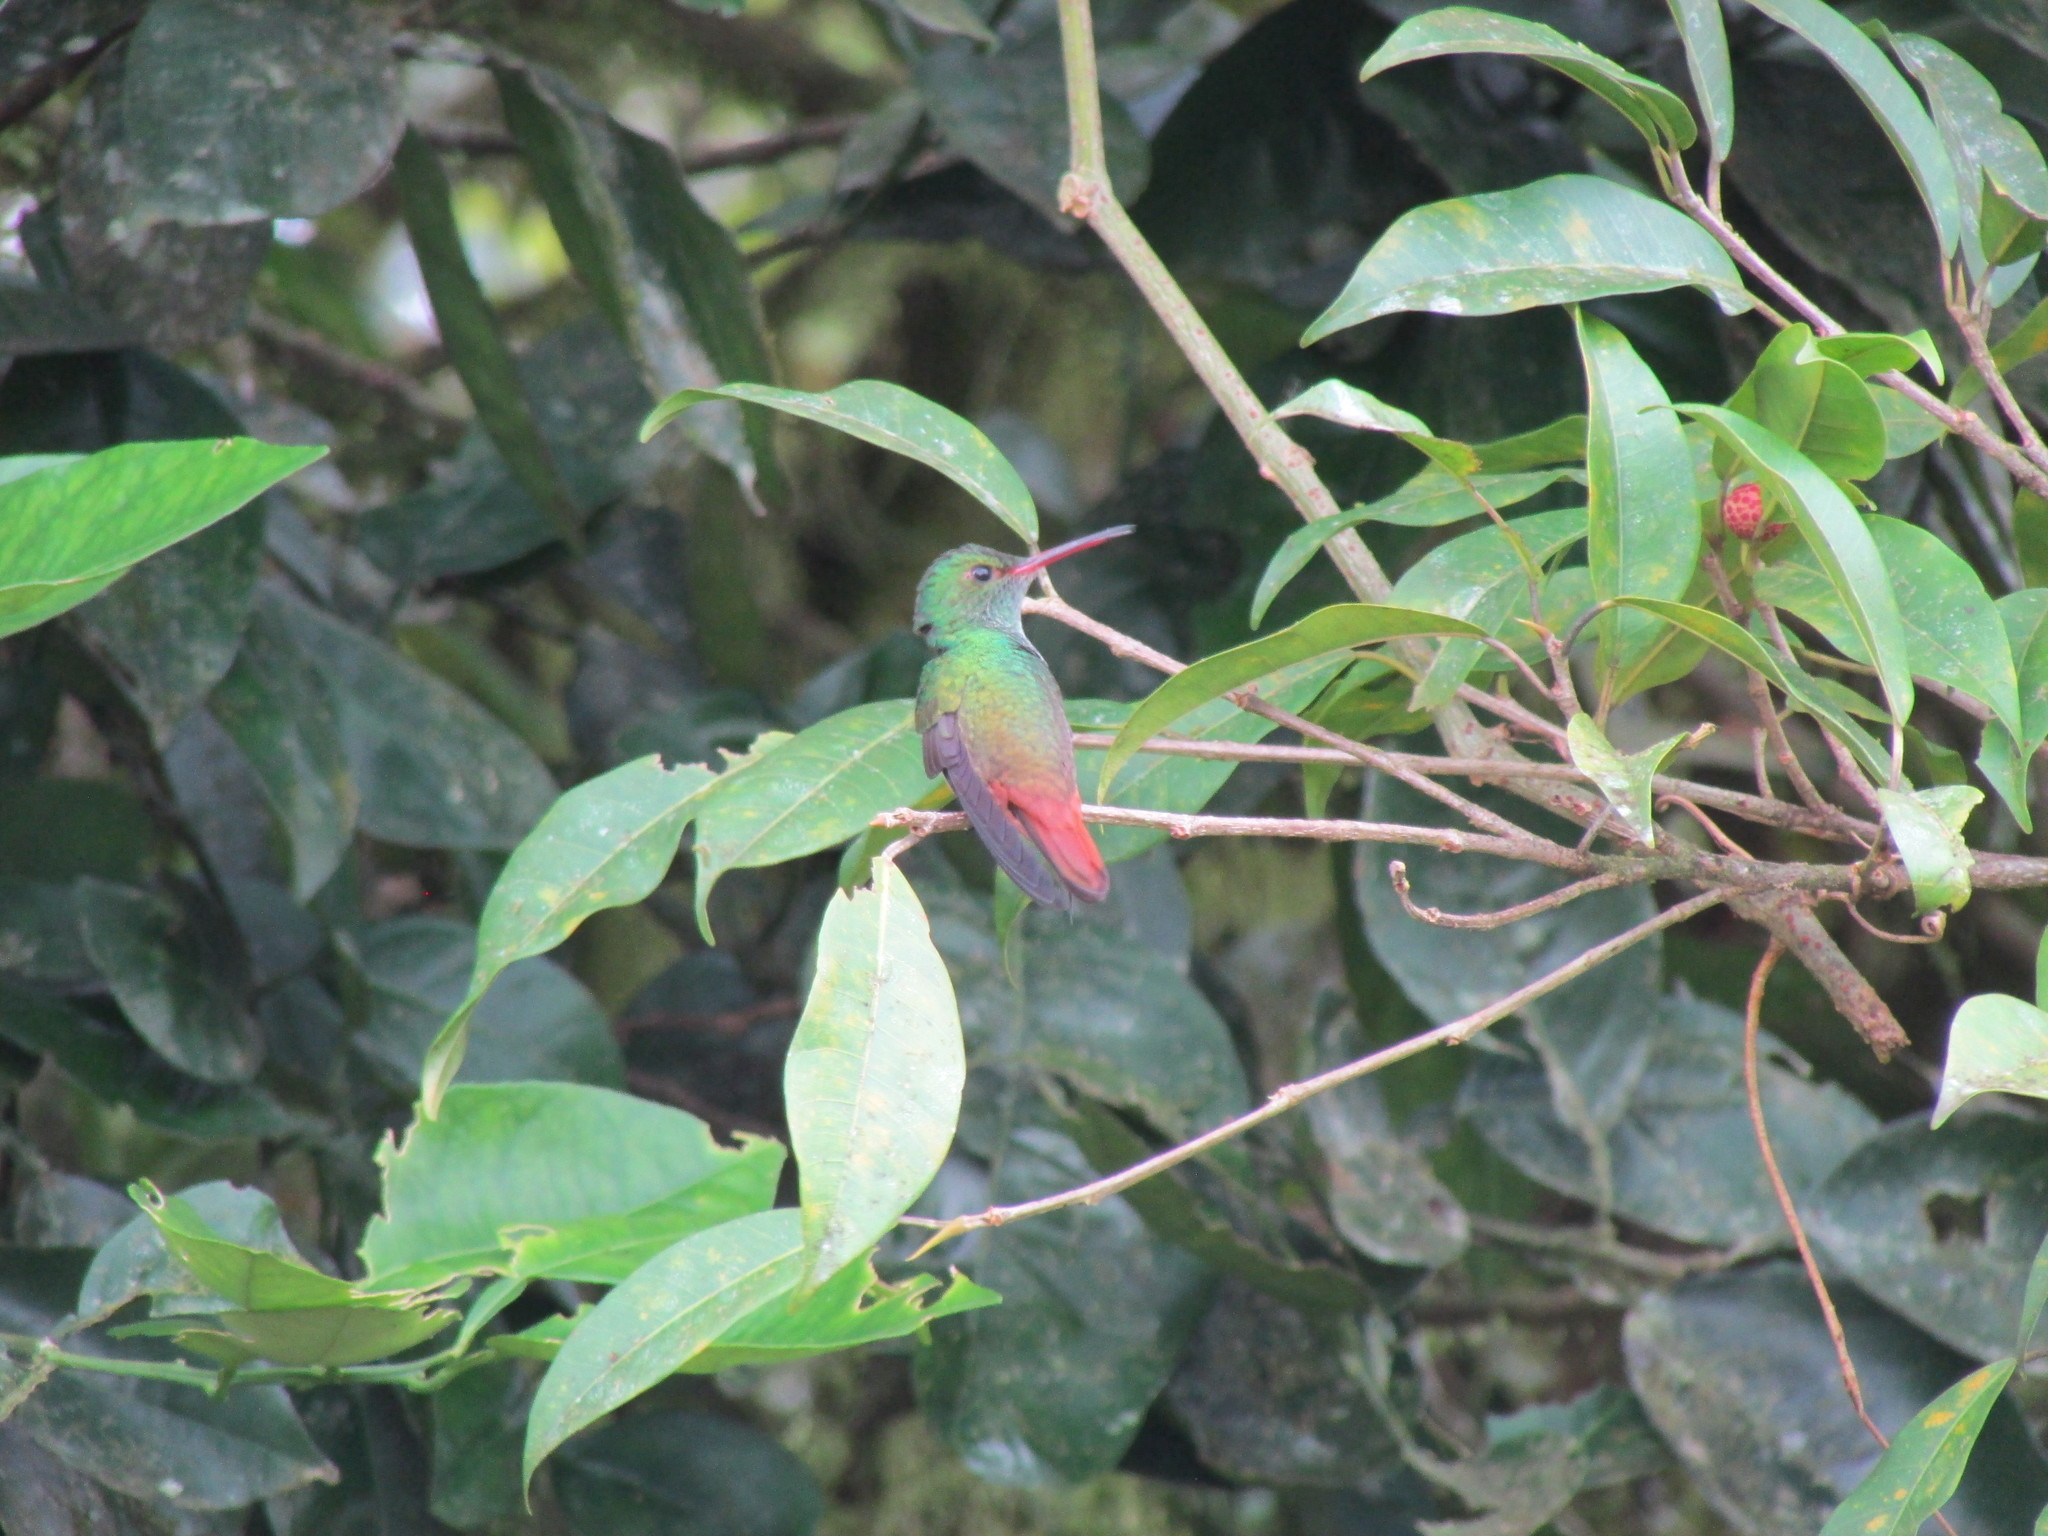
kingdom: Animalia
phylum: Chordata
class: Aves
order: Apodiformes
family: Trochilidae
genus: Amazilia
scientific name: Amazilia tzacatl
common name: Rufous-tailed hummingbird
